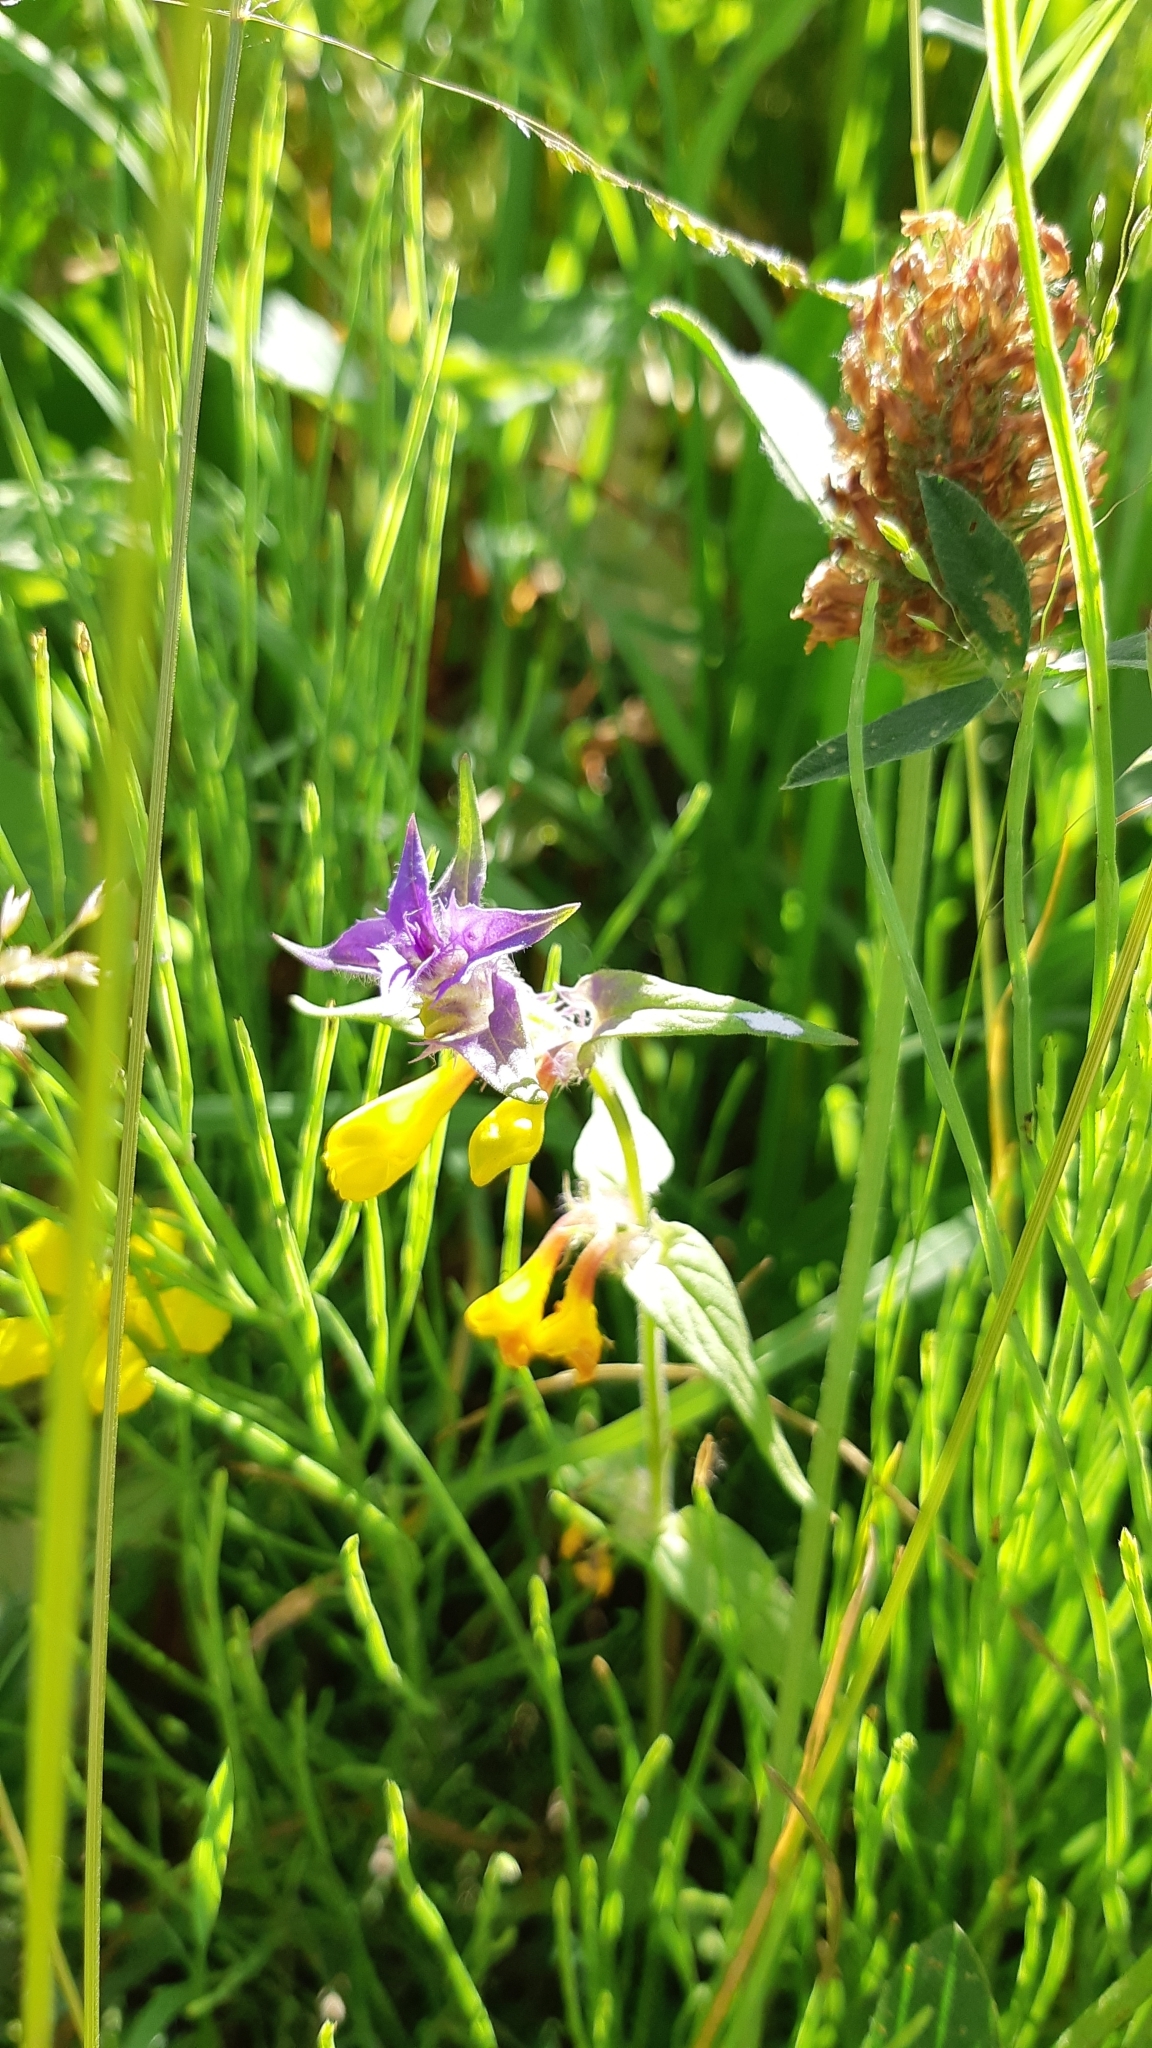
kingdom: Plantae
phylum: Tracheophyta
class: Magnoliopsida
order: Lamiales
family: Orobanchaceae
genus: Melampyrum
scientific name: Melampyrum nemorosum
